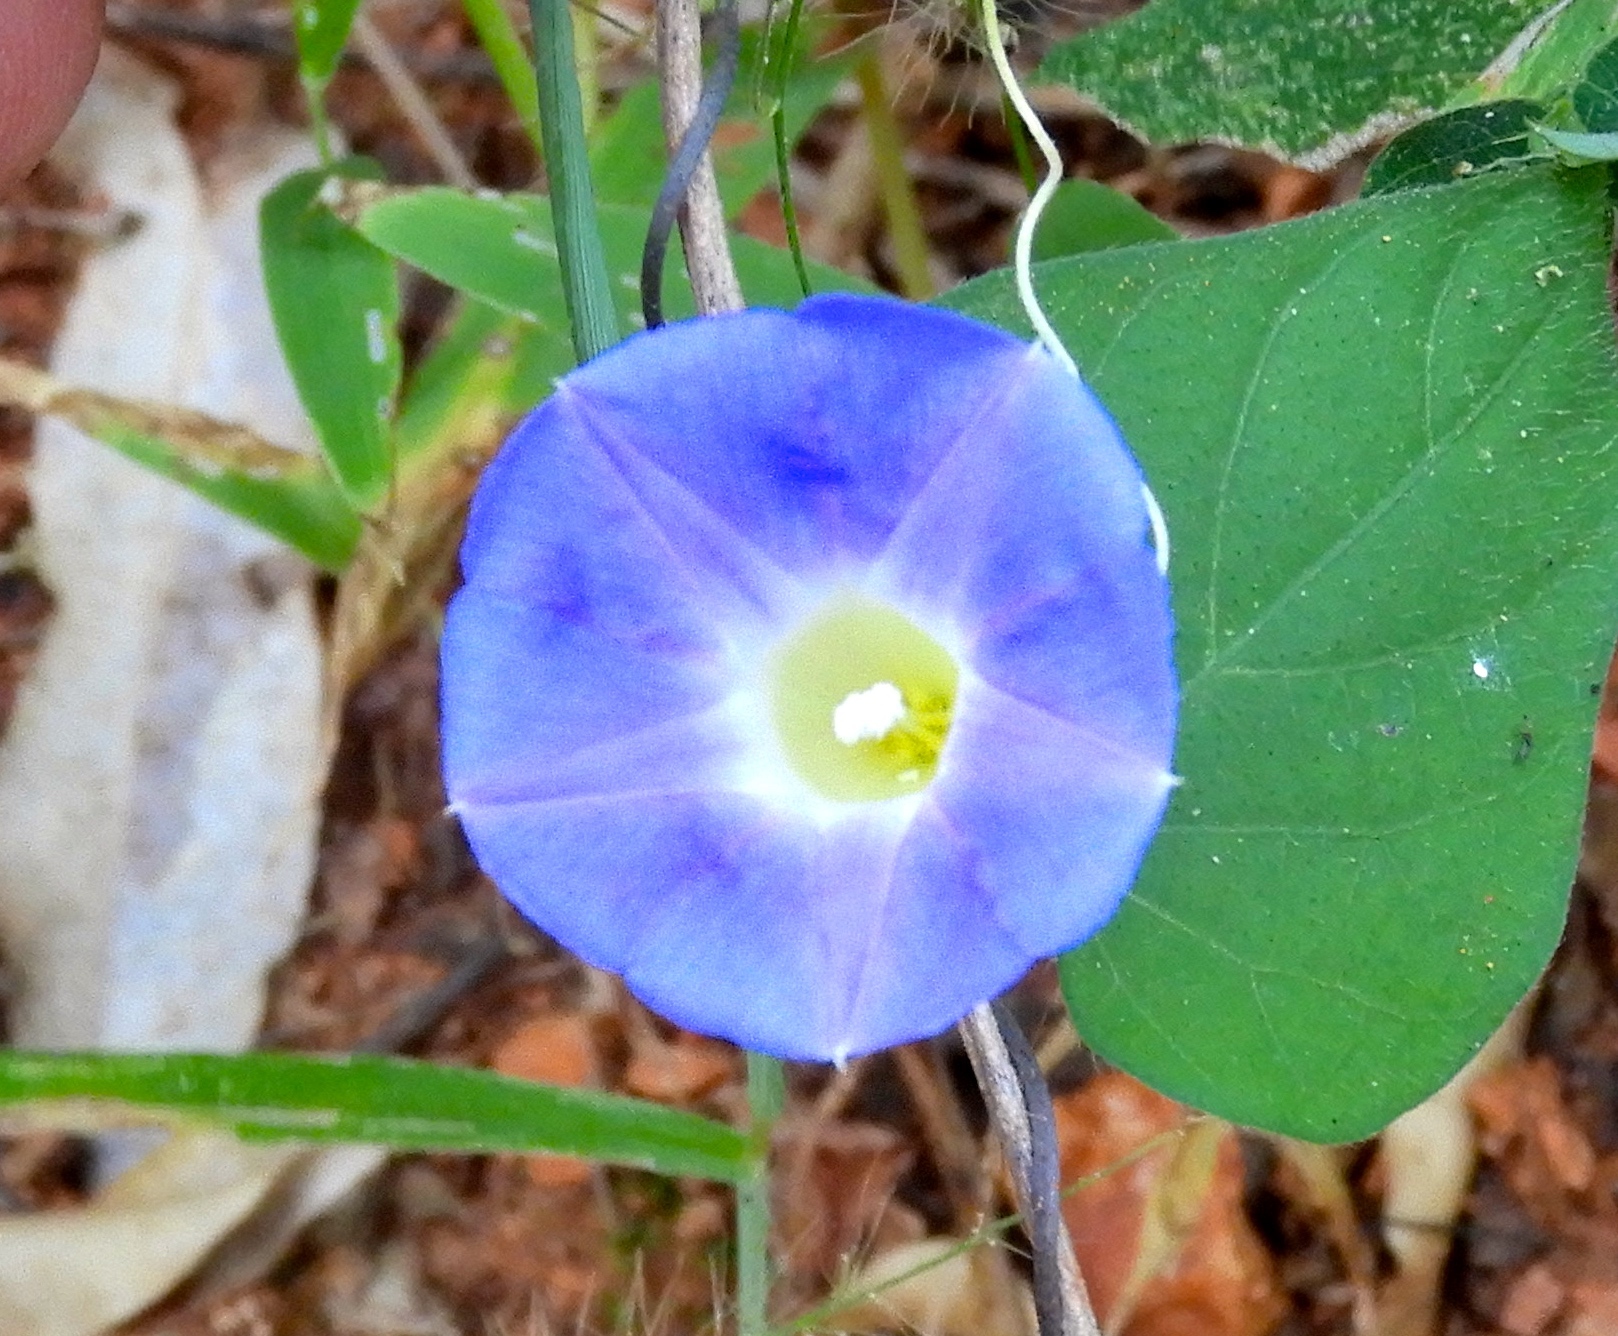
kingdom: Plantae
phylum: Tracheophyta
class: Magnoliopsida
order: Solanales
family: Convolvulaceae
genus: Ipomoea
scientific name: Ipomoea meyeri
